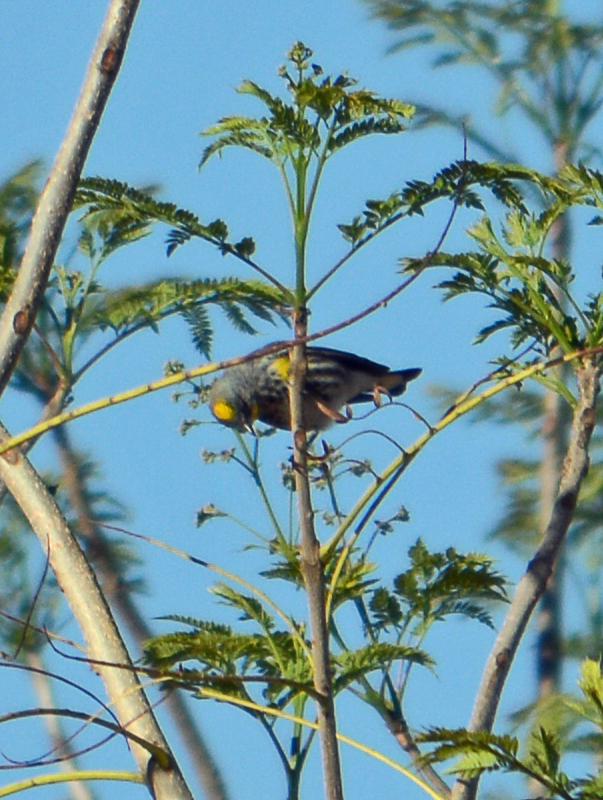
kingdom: Animalia
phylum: Chordata
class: Aves
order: Passeriformes
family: Parulidae
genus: Setophaga
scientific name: Setophaga coronata
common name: Myrtle warbler
